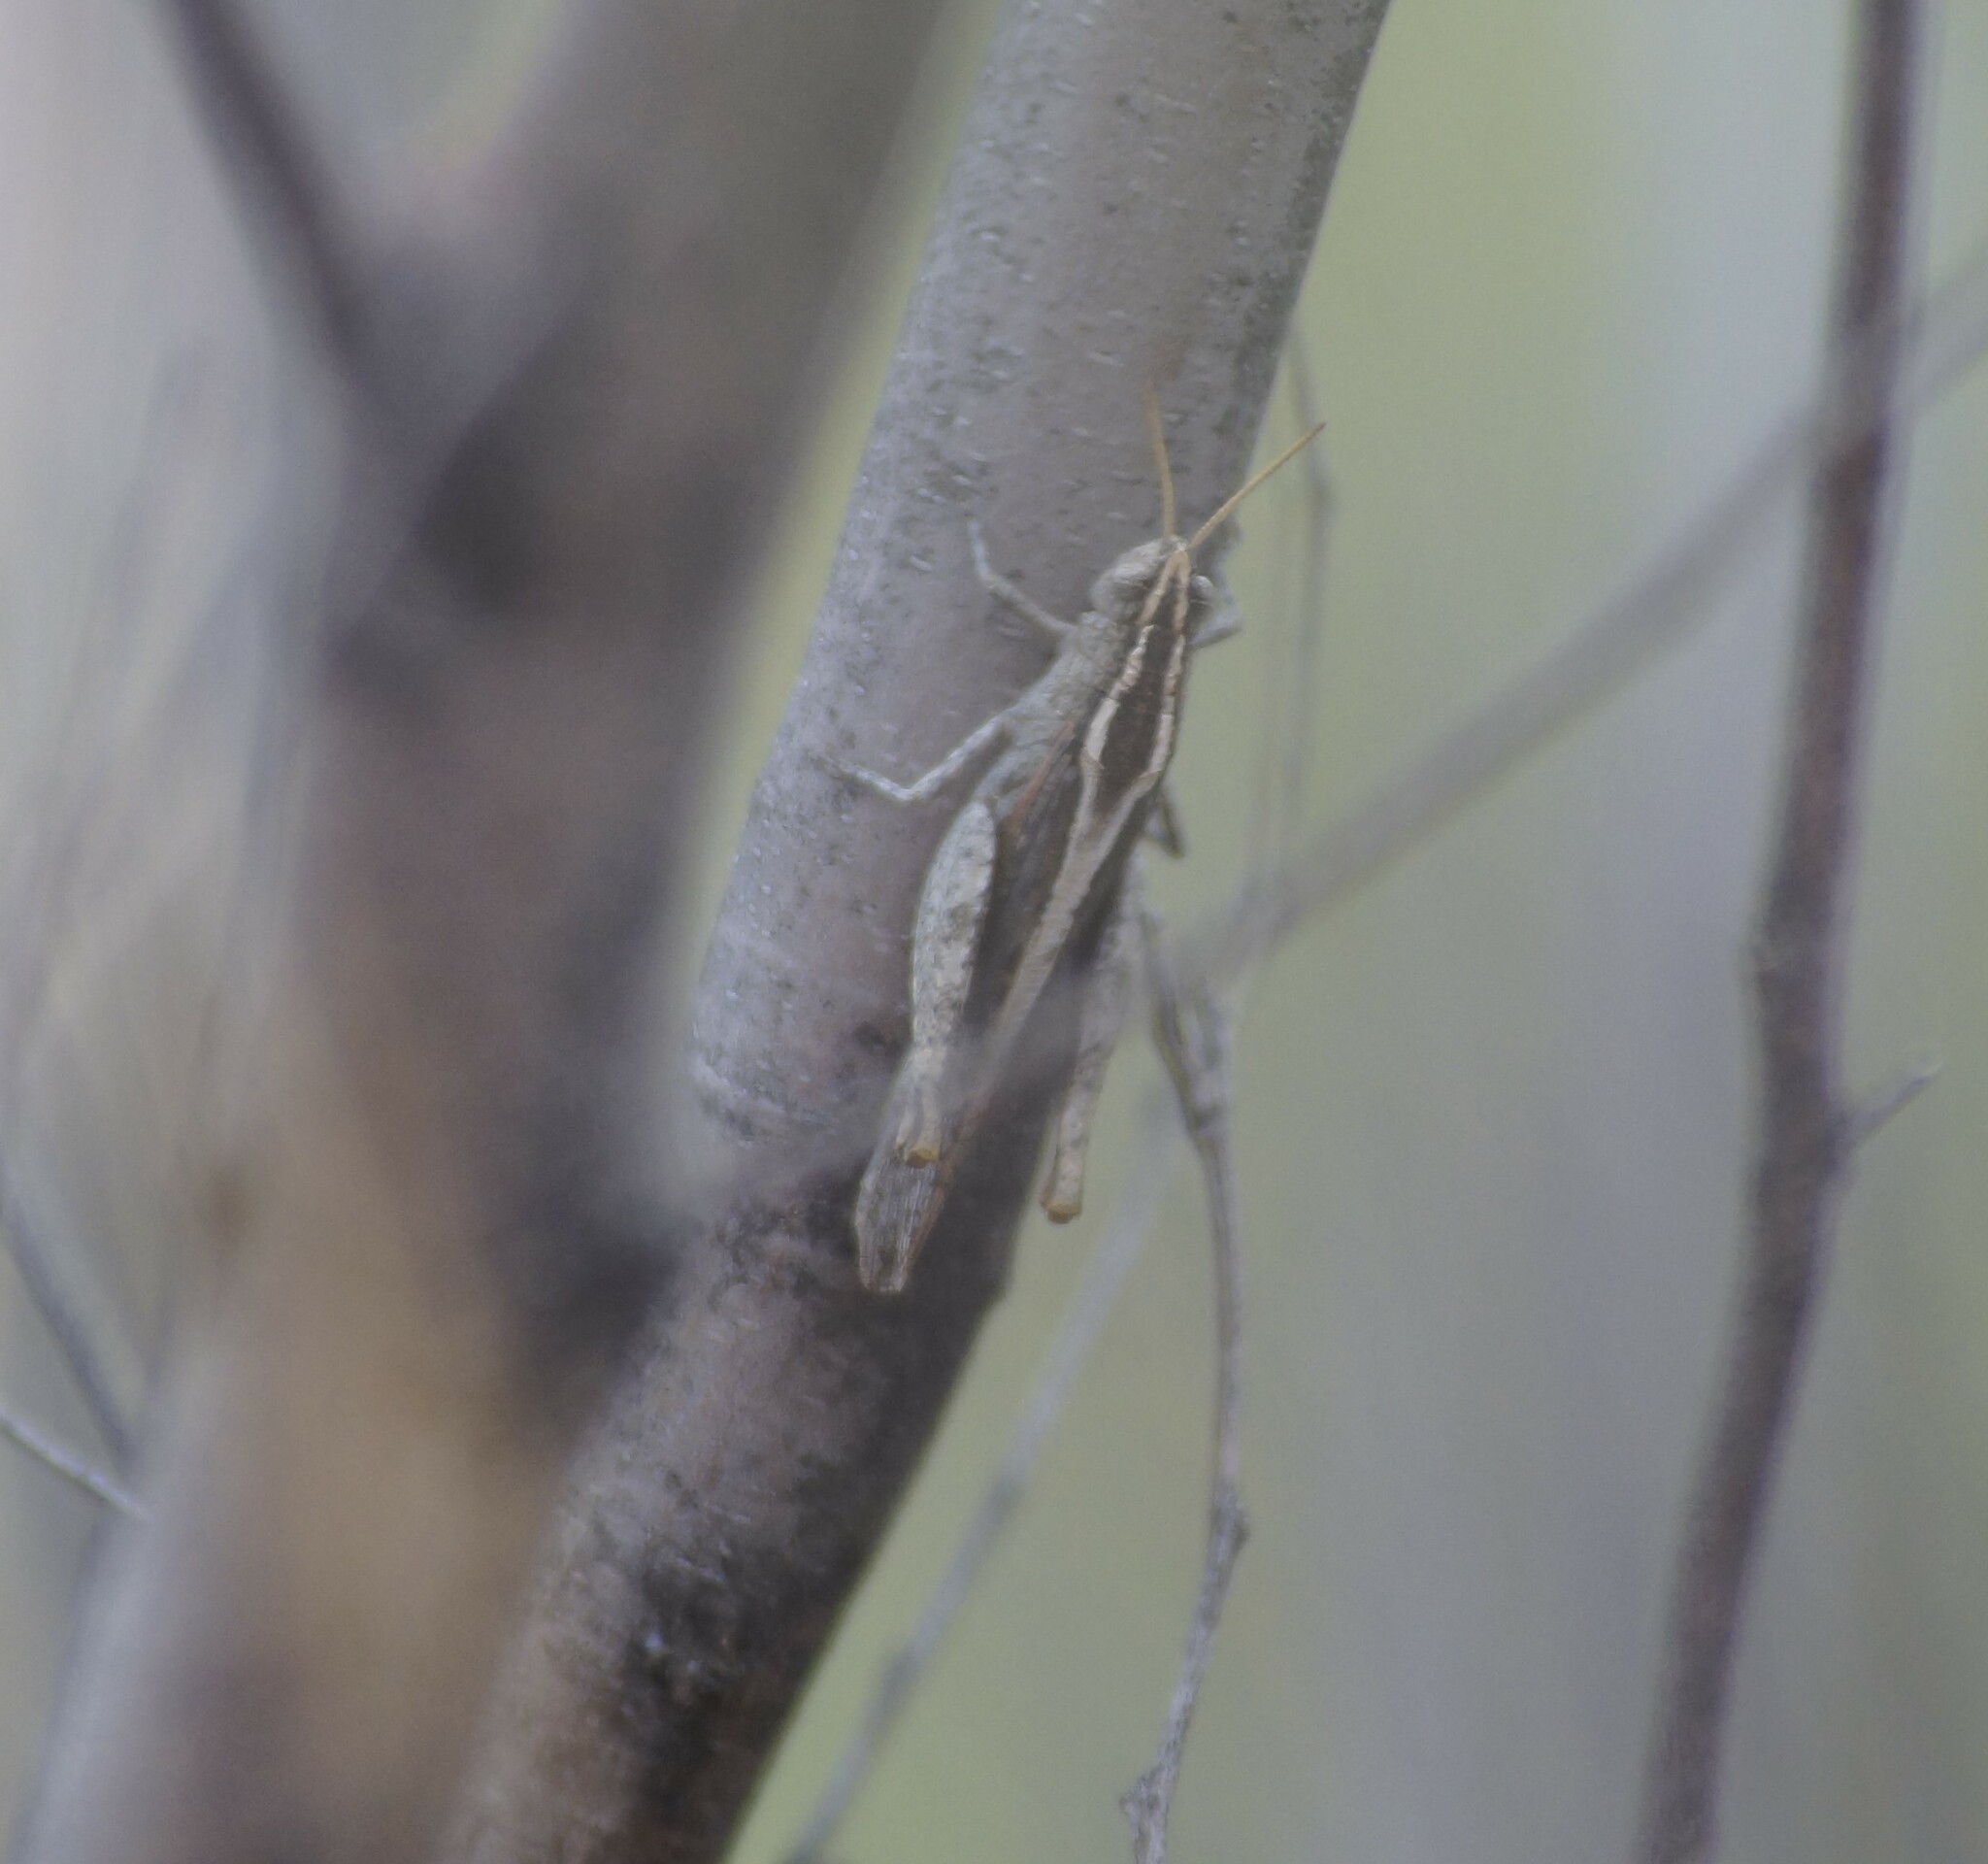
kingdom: Animalia
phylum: Arthropoda
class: Insecta
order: Orthoptera
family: Acrididae
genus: Apotropis
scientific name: Apotropis vittata
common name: Common striped grasshopper
